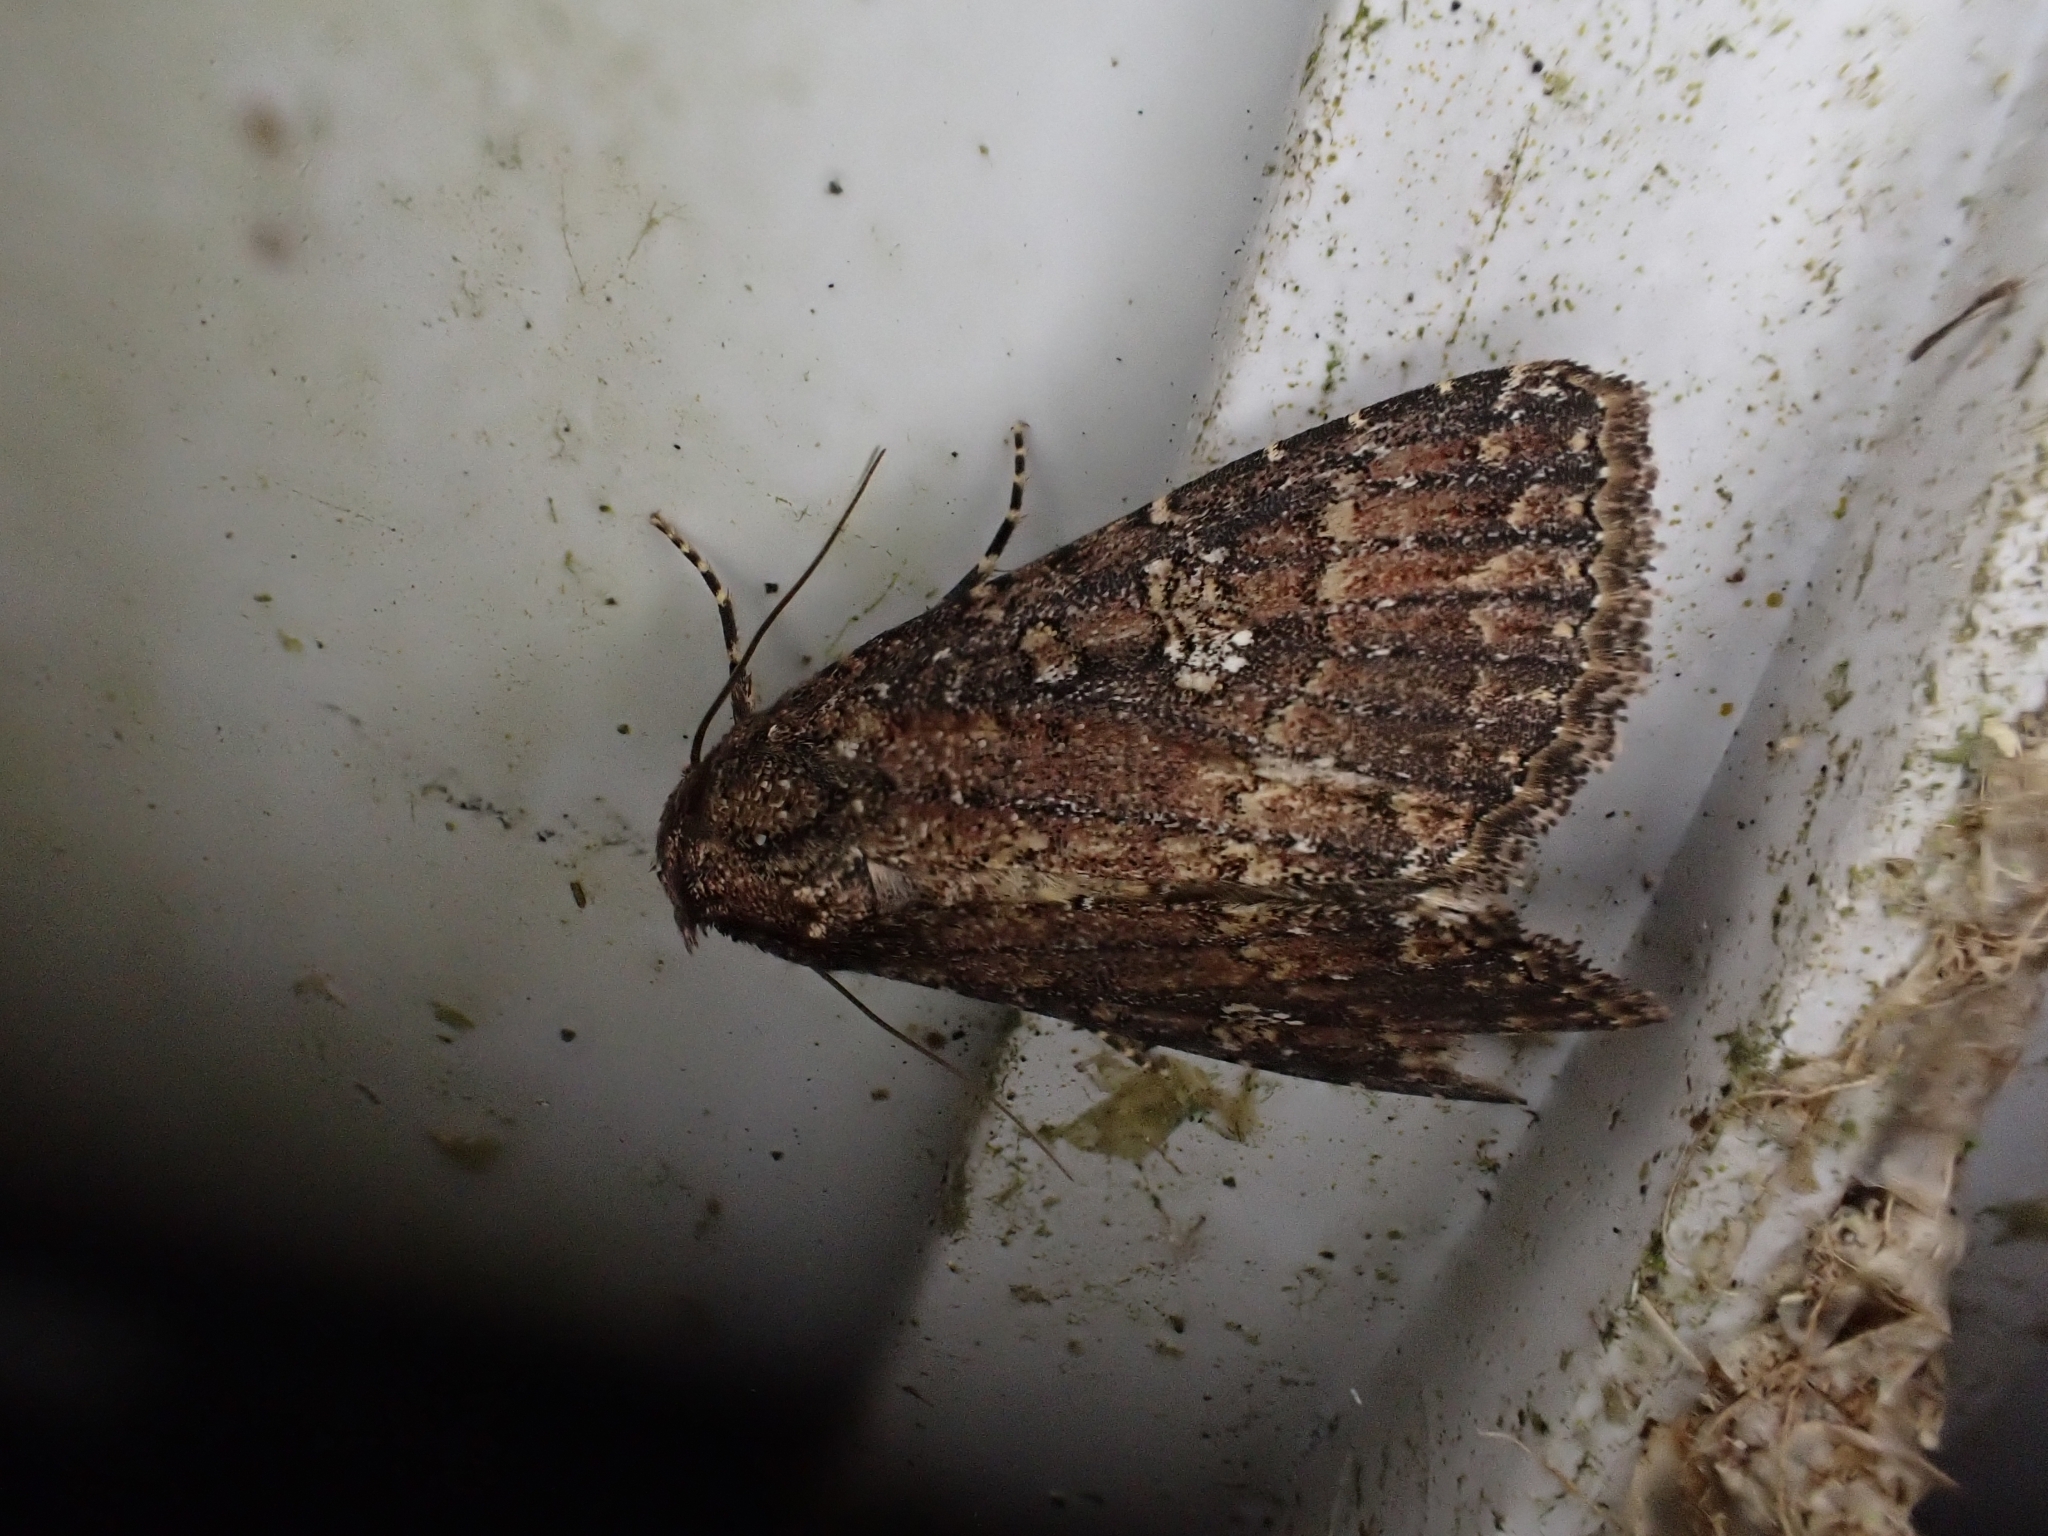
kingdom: Animalia
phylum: Arthropoda
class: Insecta
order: Lepidoptera
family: Noctuidae
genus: Condica
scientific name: Condica capensis
